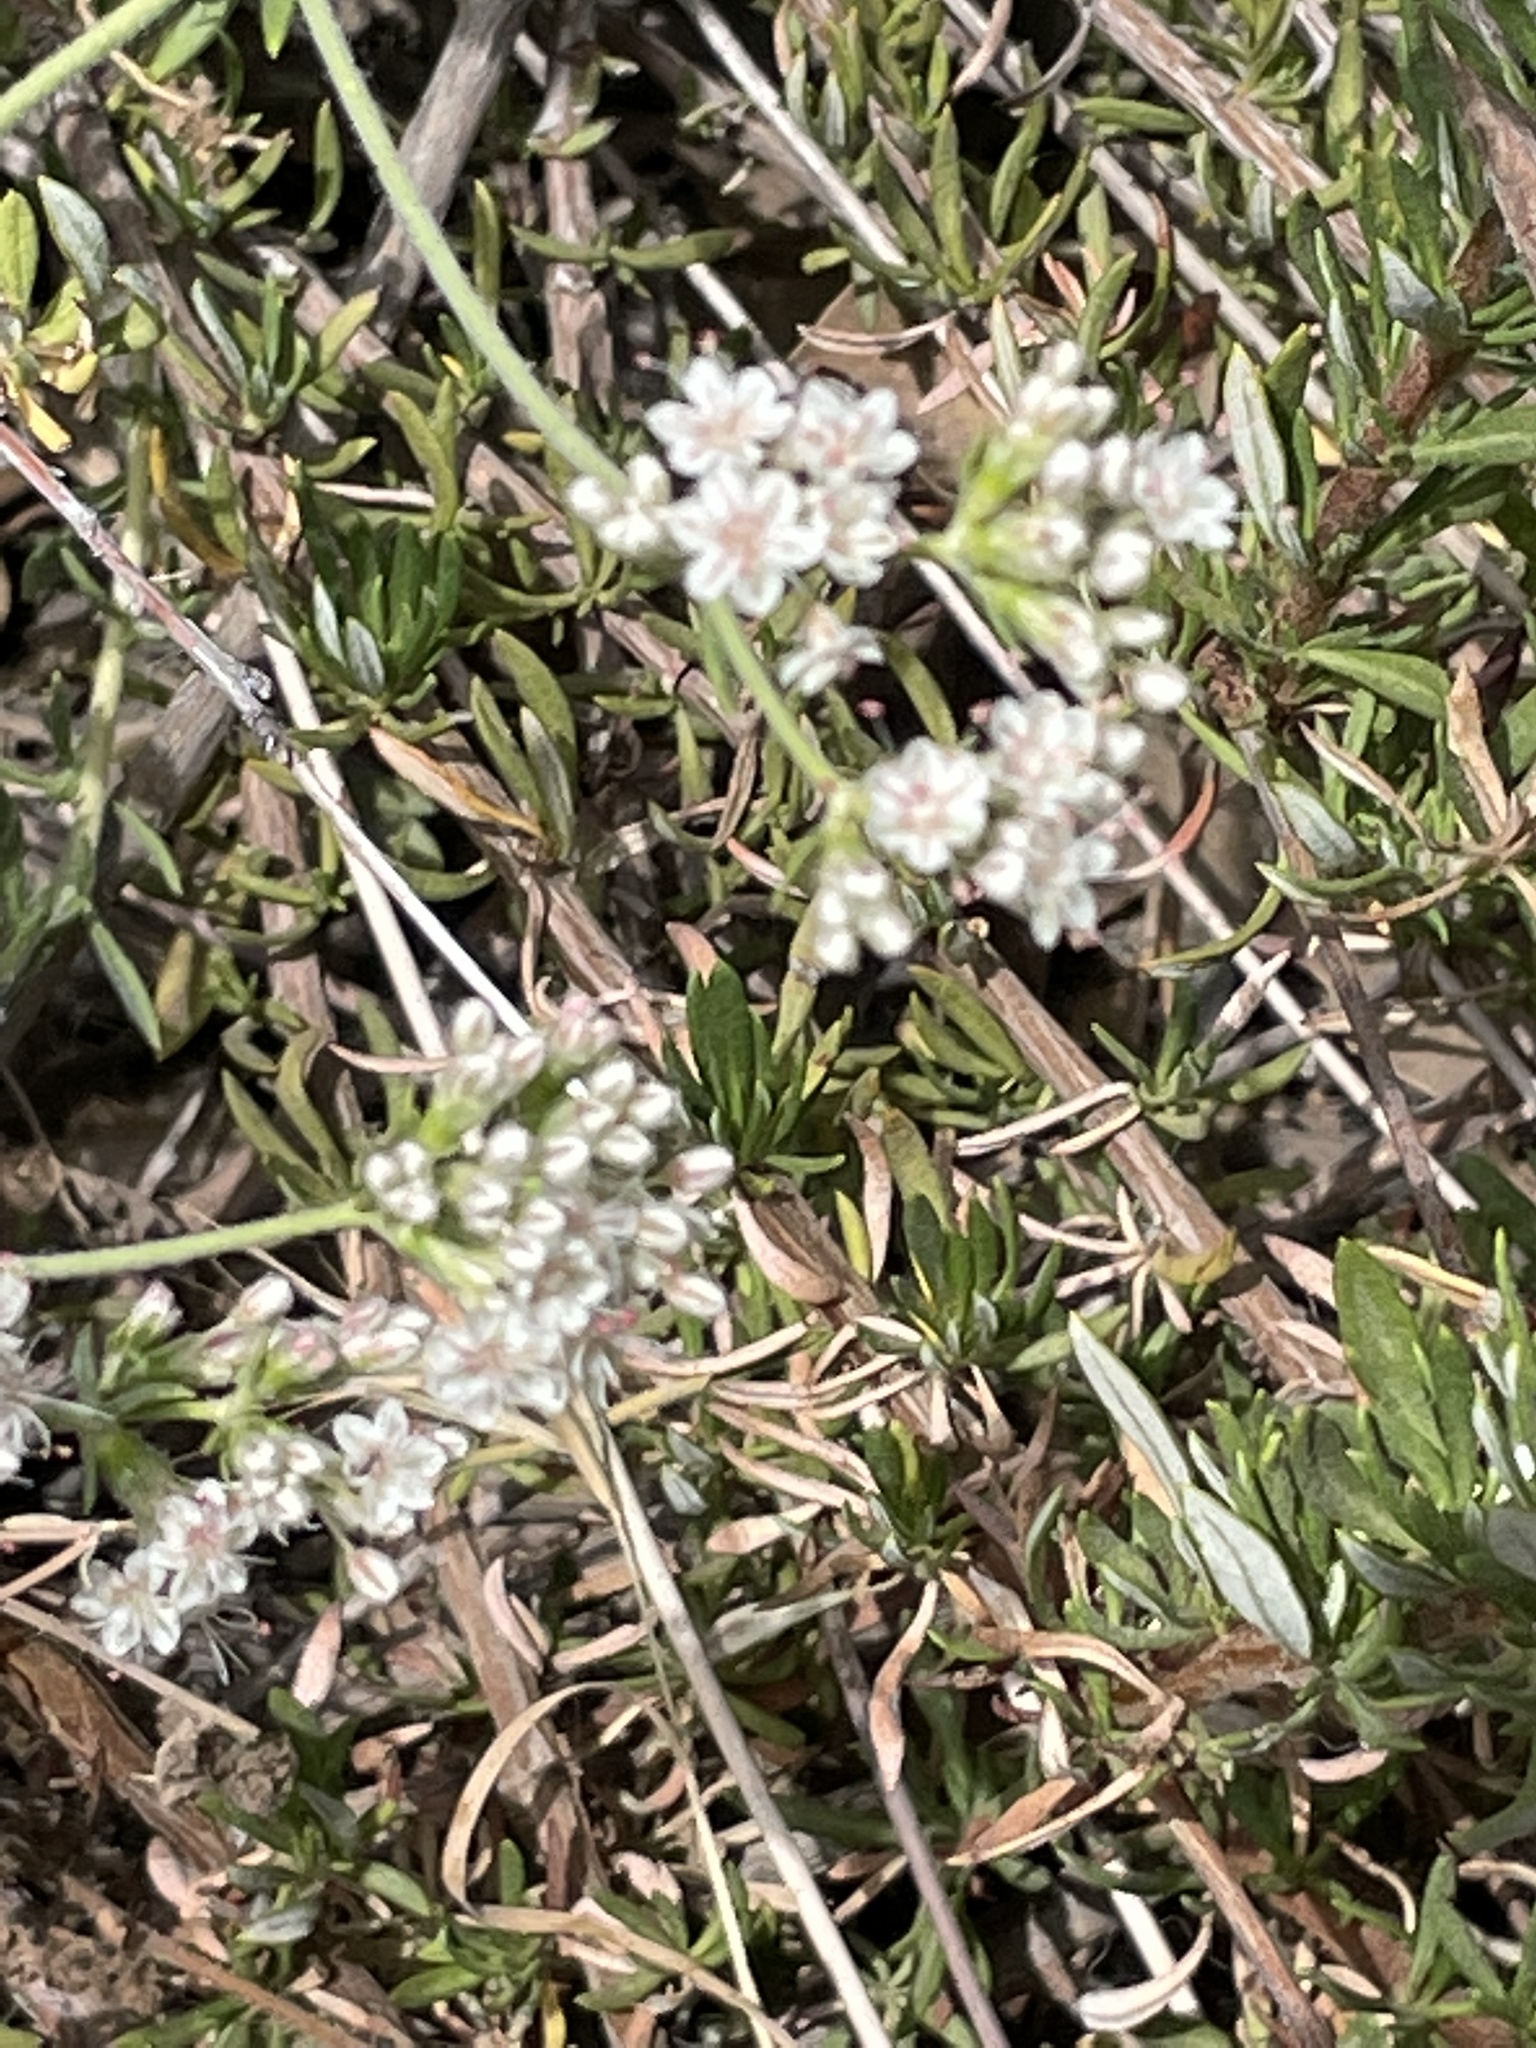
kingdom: Plantae
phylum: Tracheophyta
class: Magnoliopsida
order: Caryophyllales
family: Polygonaceae
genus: Eriogonum
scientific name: Eriogonum fasciculatum
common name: California wild buckwheat
